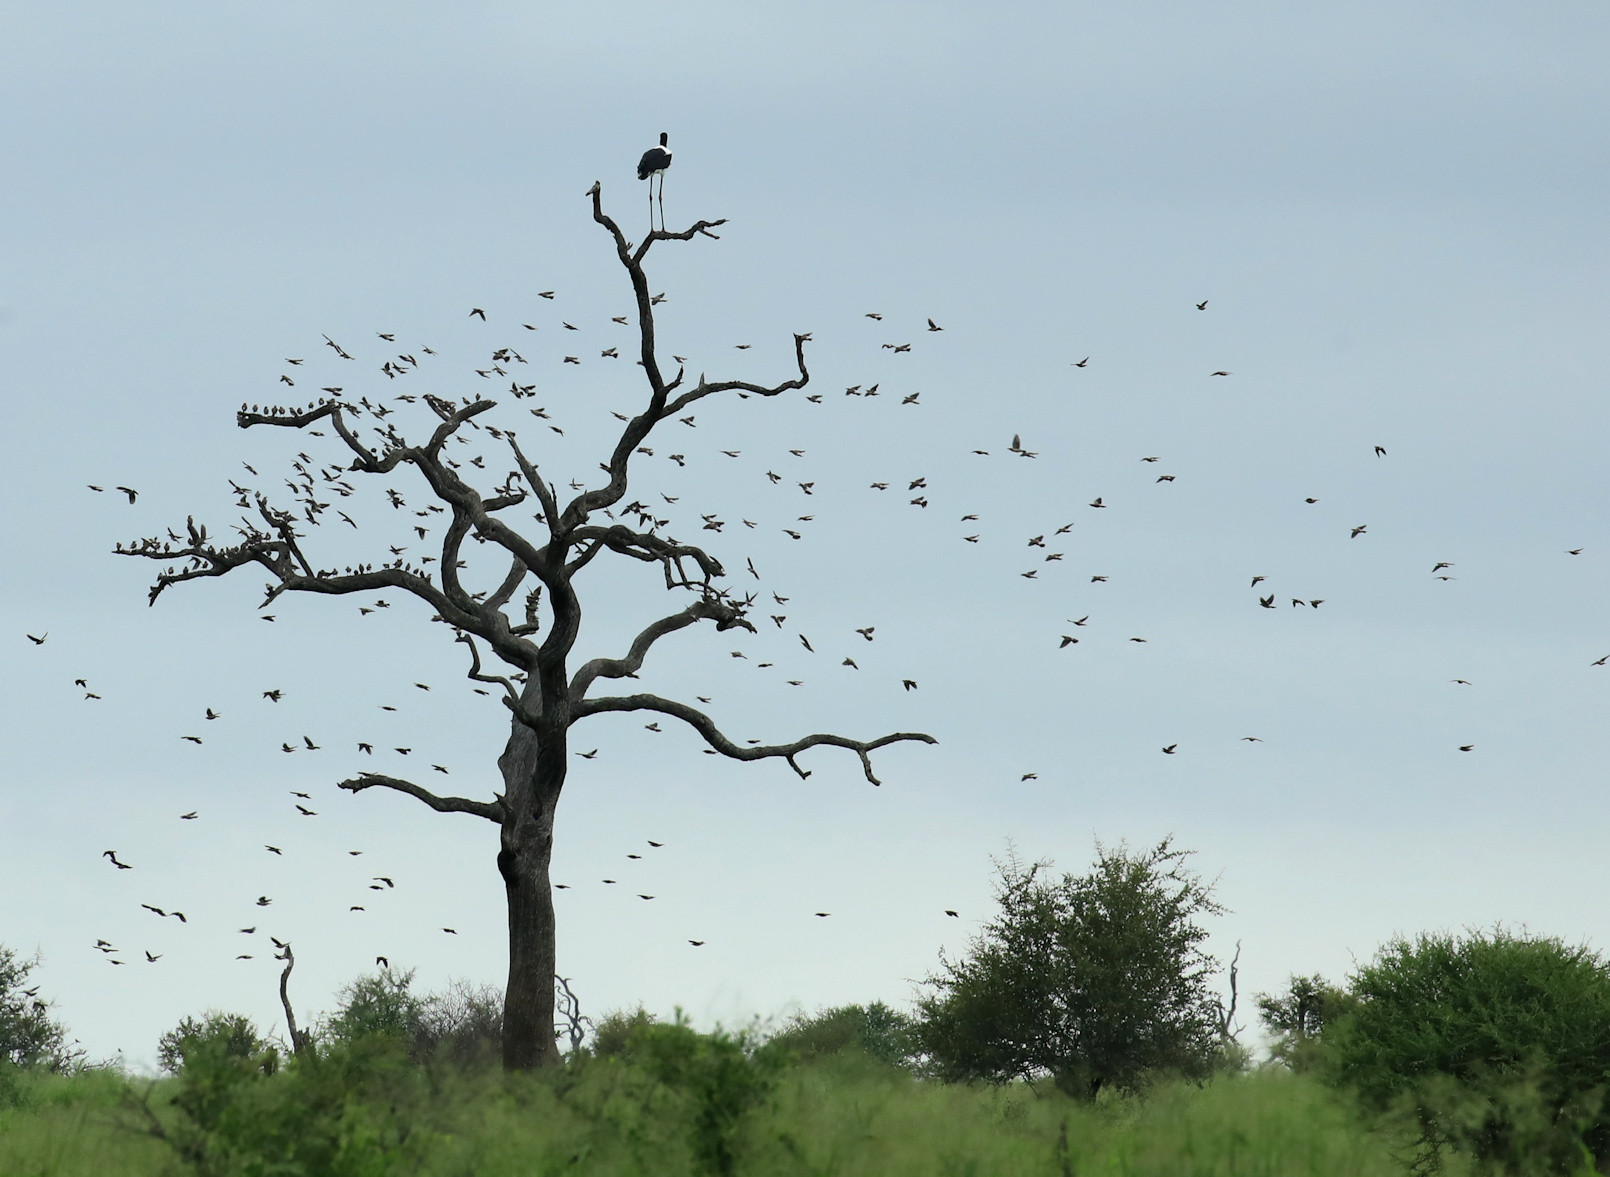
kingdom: Animalia
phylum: Chordata
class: Aves
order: Passeriformes
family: Sturnidae
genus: Creatophora
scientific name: Creatophora cinerea
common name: Wattled starling
